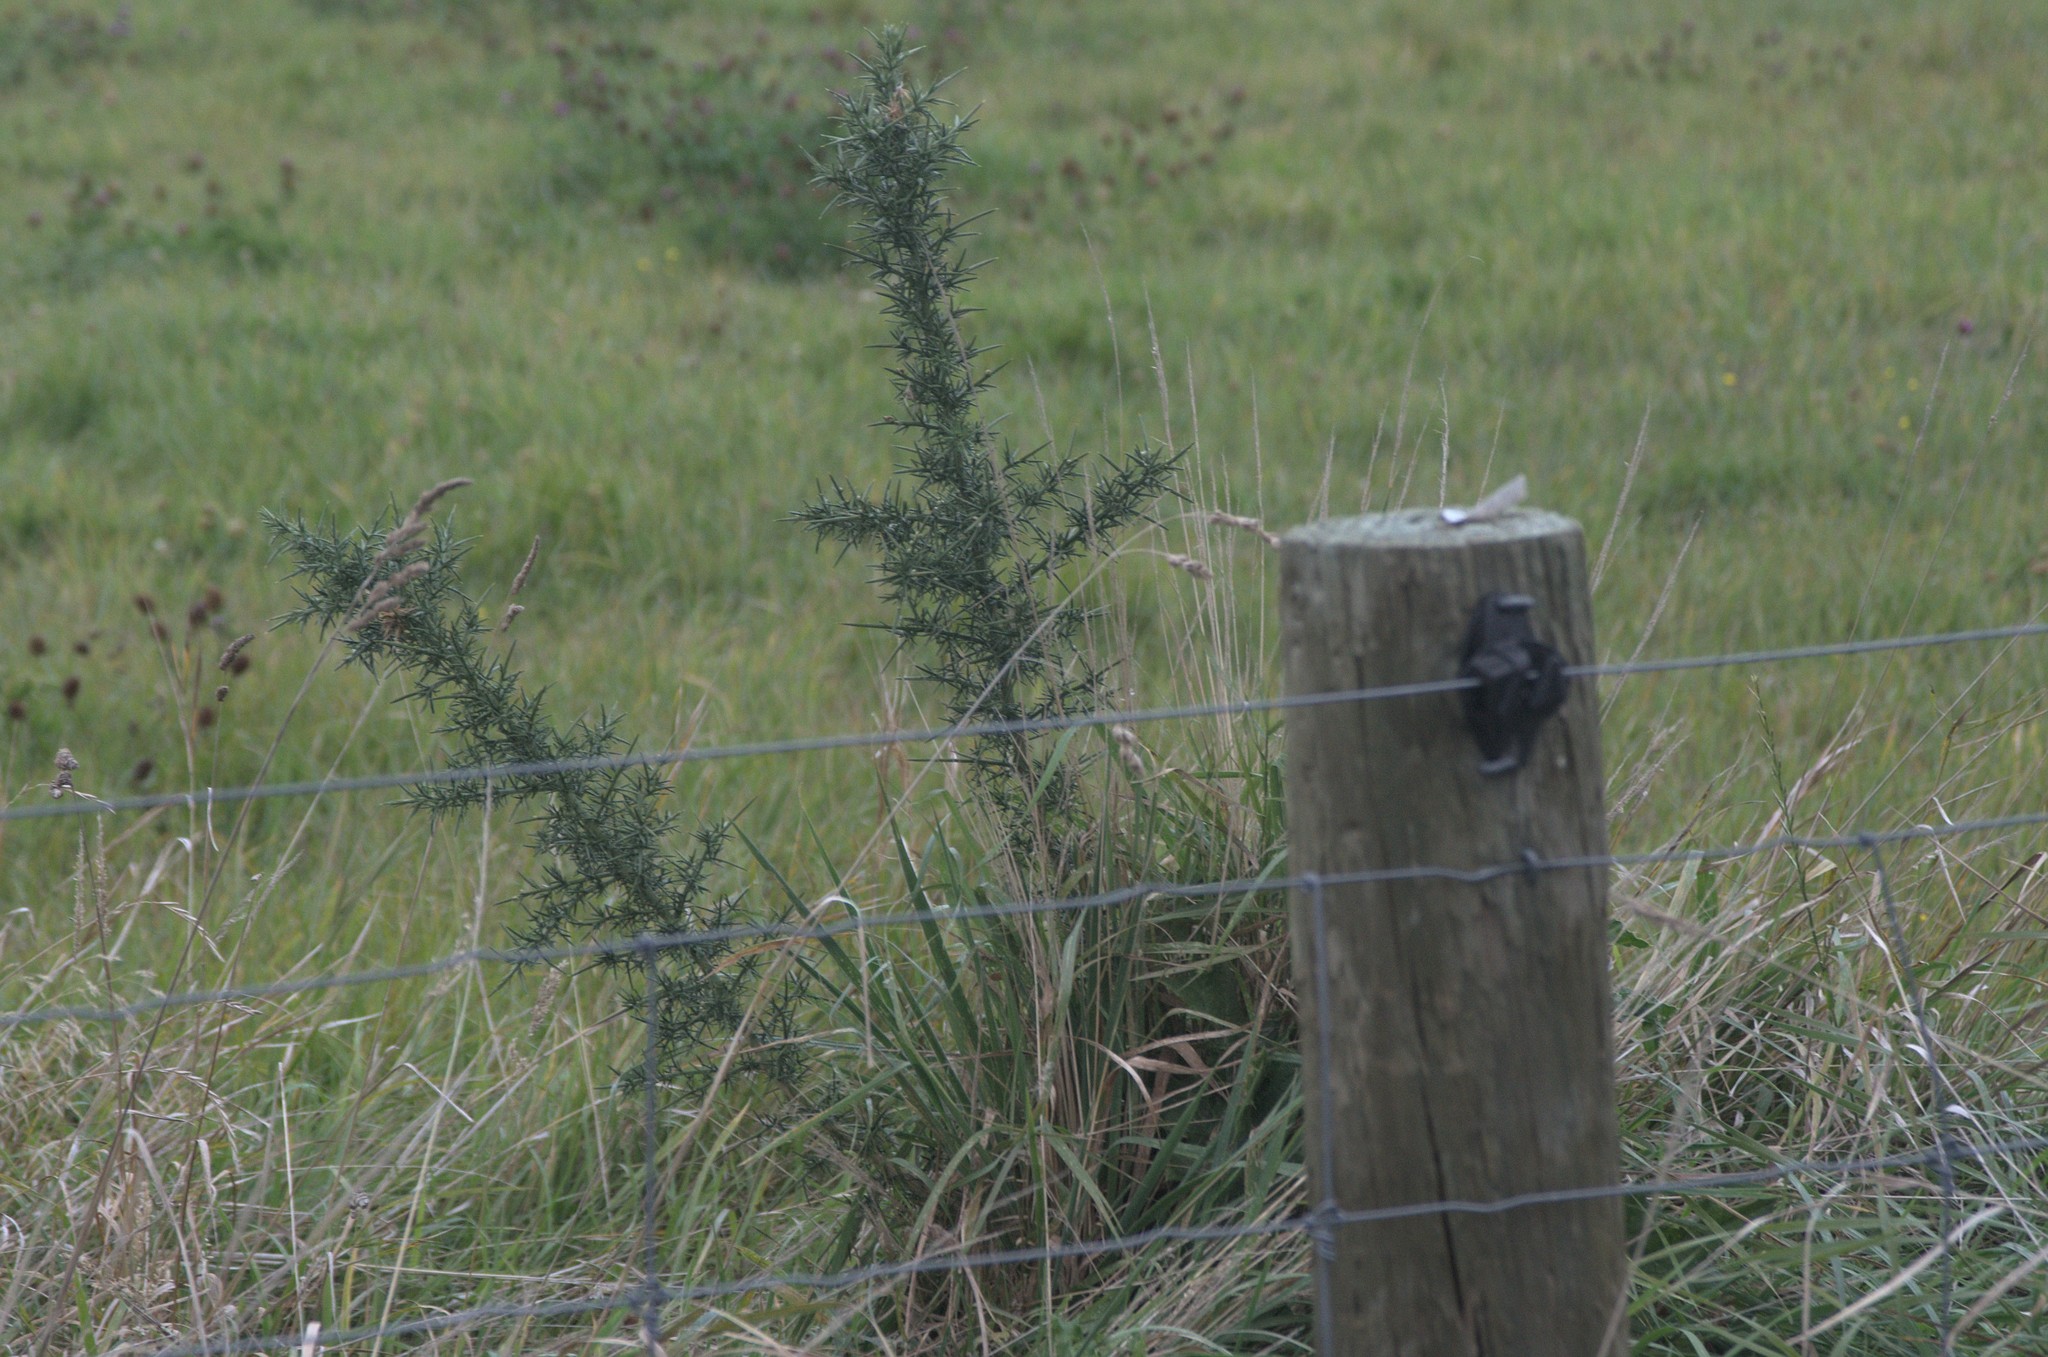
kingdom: Plantae
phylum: Tracheophyta
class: Magnoliopsida
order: Fabales
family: Fabaceae
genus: Ulex
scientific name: Ulex europaeus
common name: Common gorse
